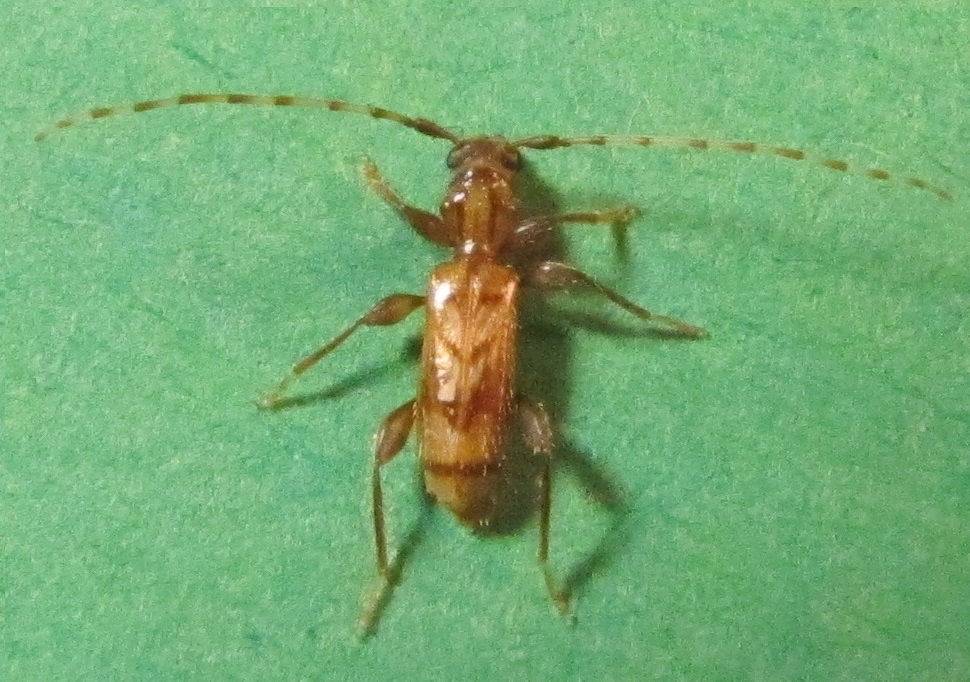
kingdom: Animalia
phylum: Arthropoda
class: Insecta
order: Coleoptera
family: Cerambycidae
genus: Obrium
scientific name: Obrium maculatum
